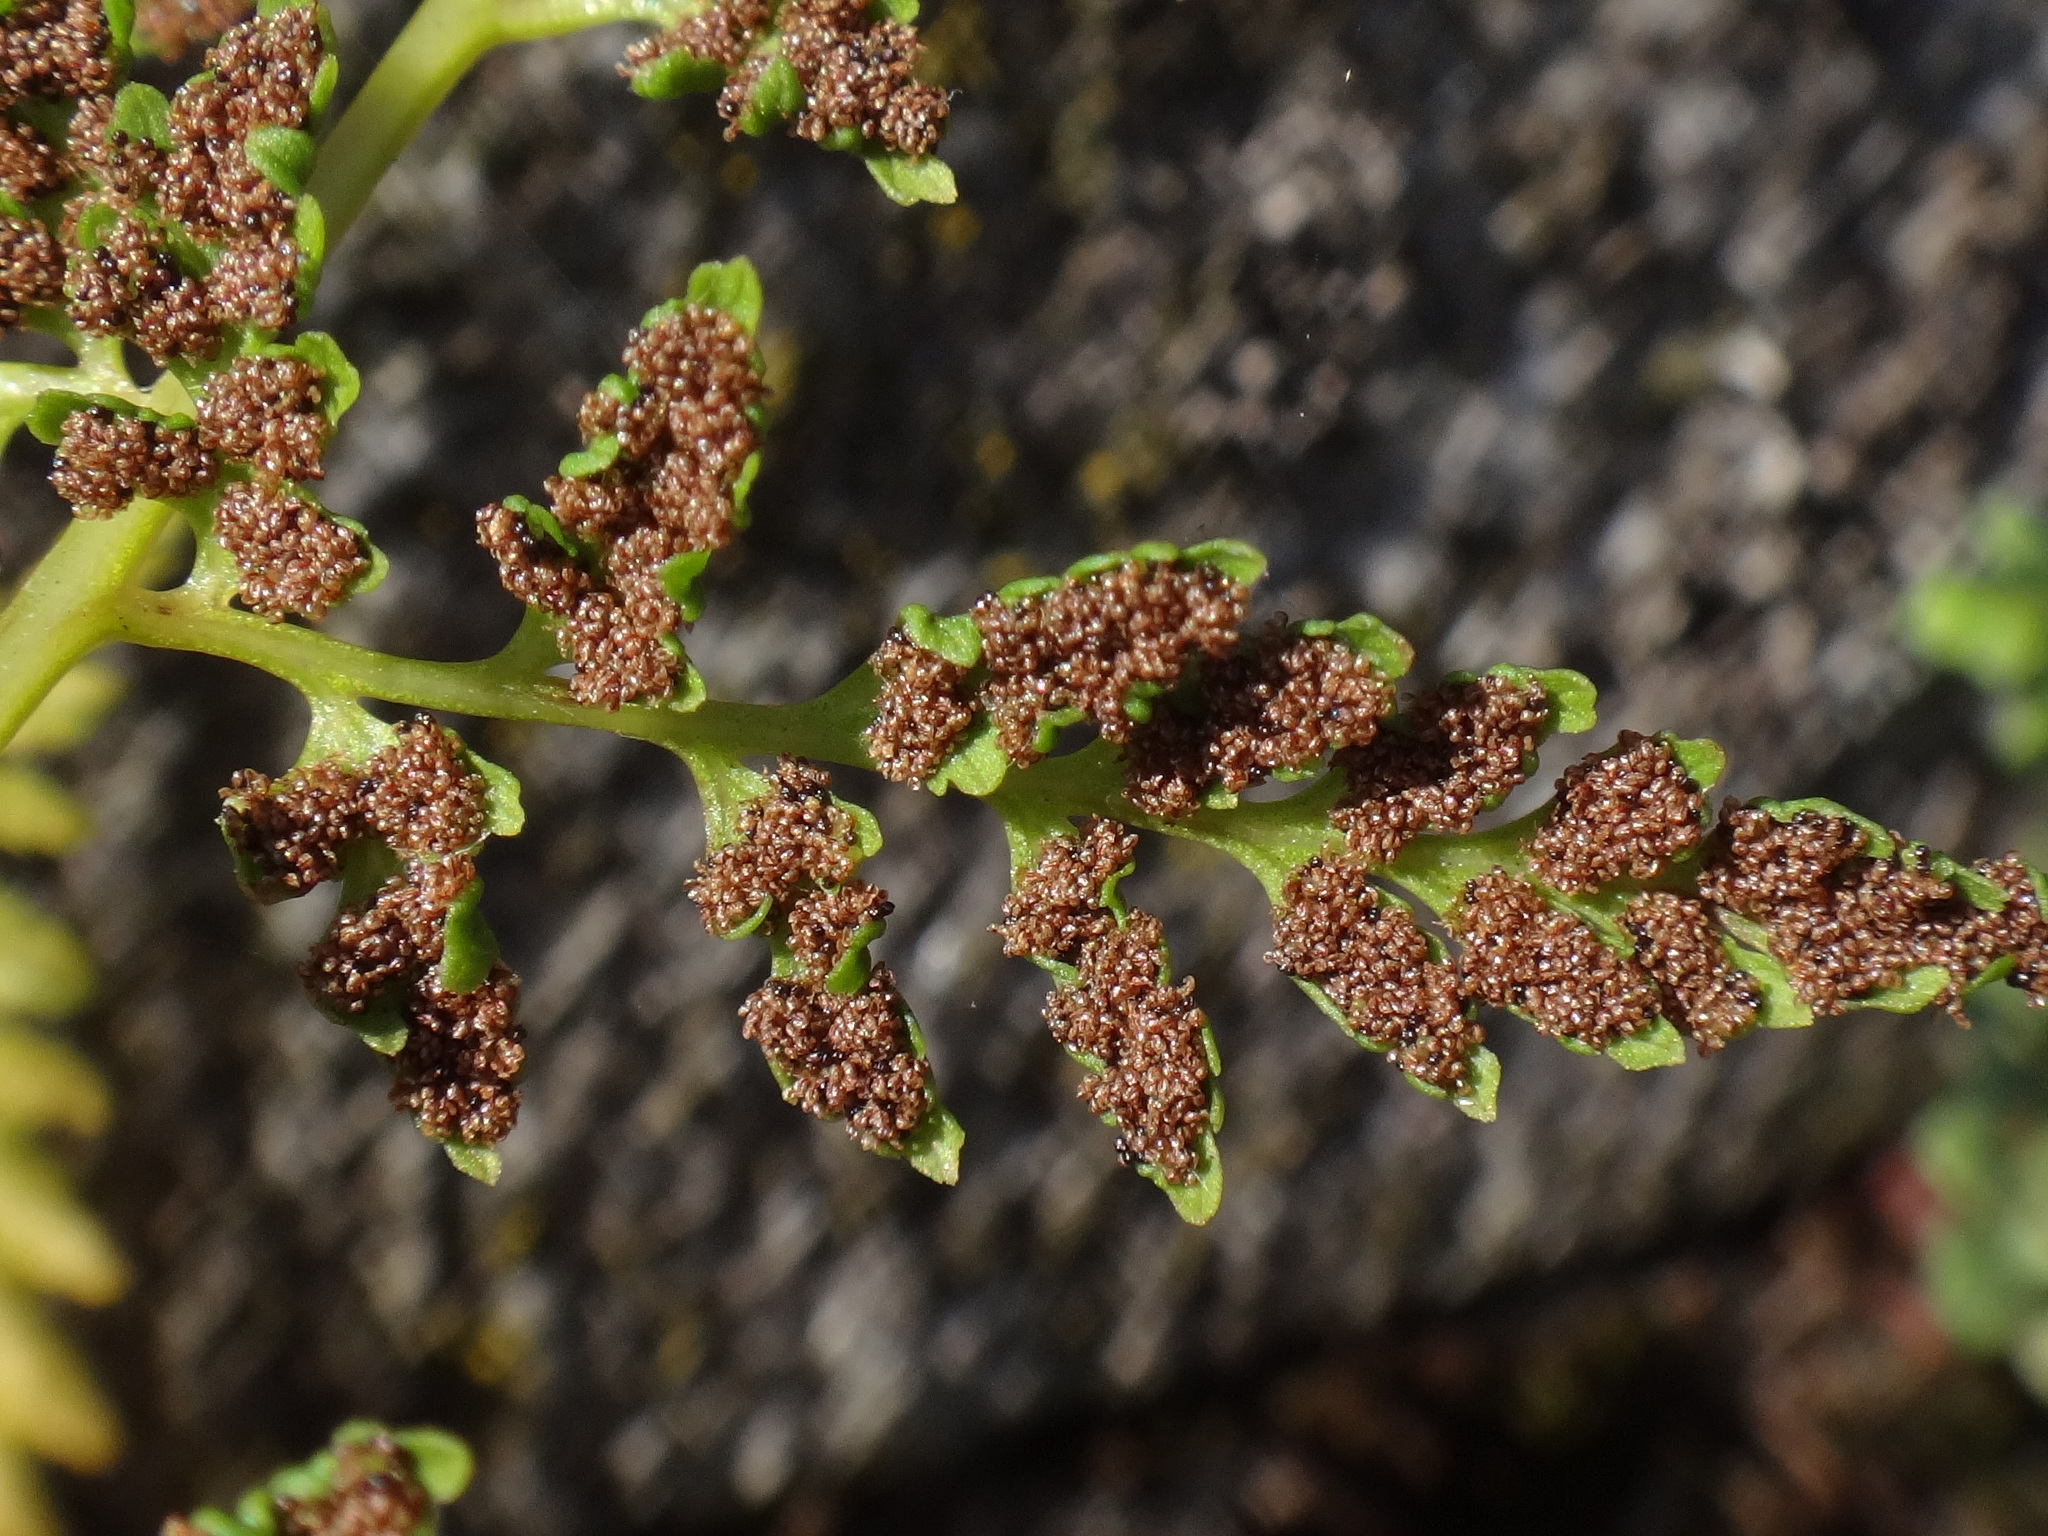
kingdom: Plantae
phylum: Tracheophyta
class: Polypodiopsida
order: Polypodiales
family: Cystopteridaceae
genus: Cystopteris
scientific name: Cystopteris fragilis
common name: Brittle bladder fern
